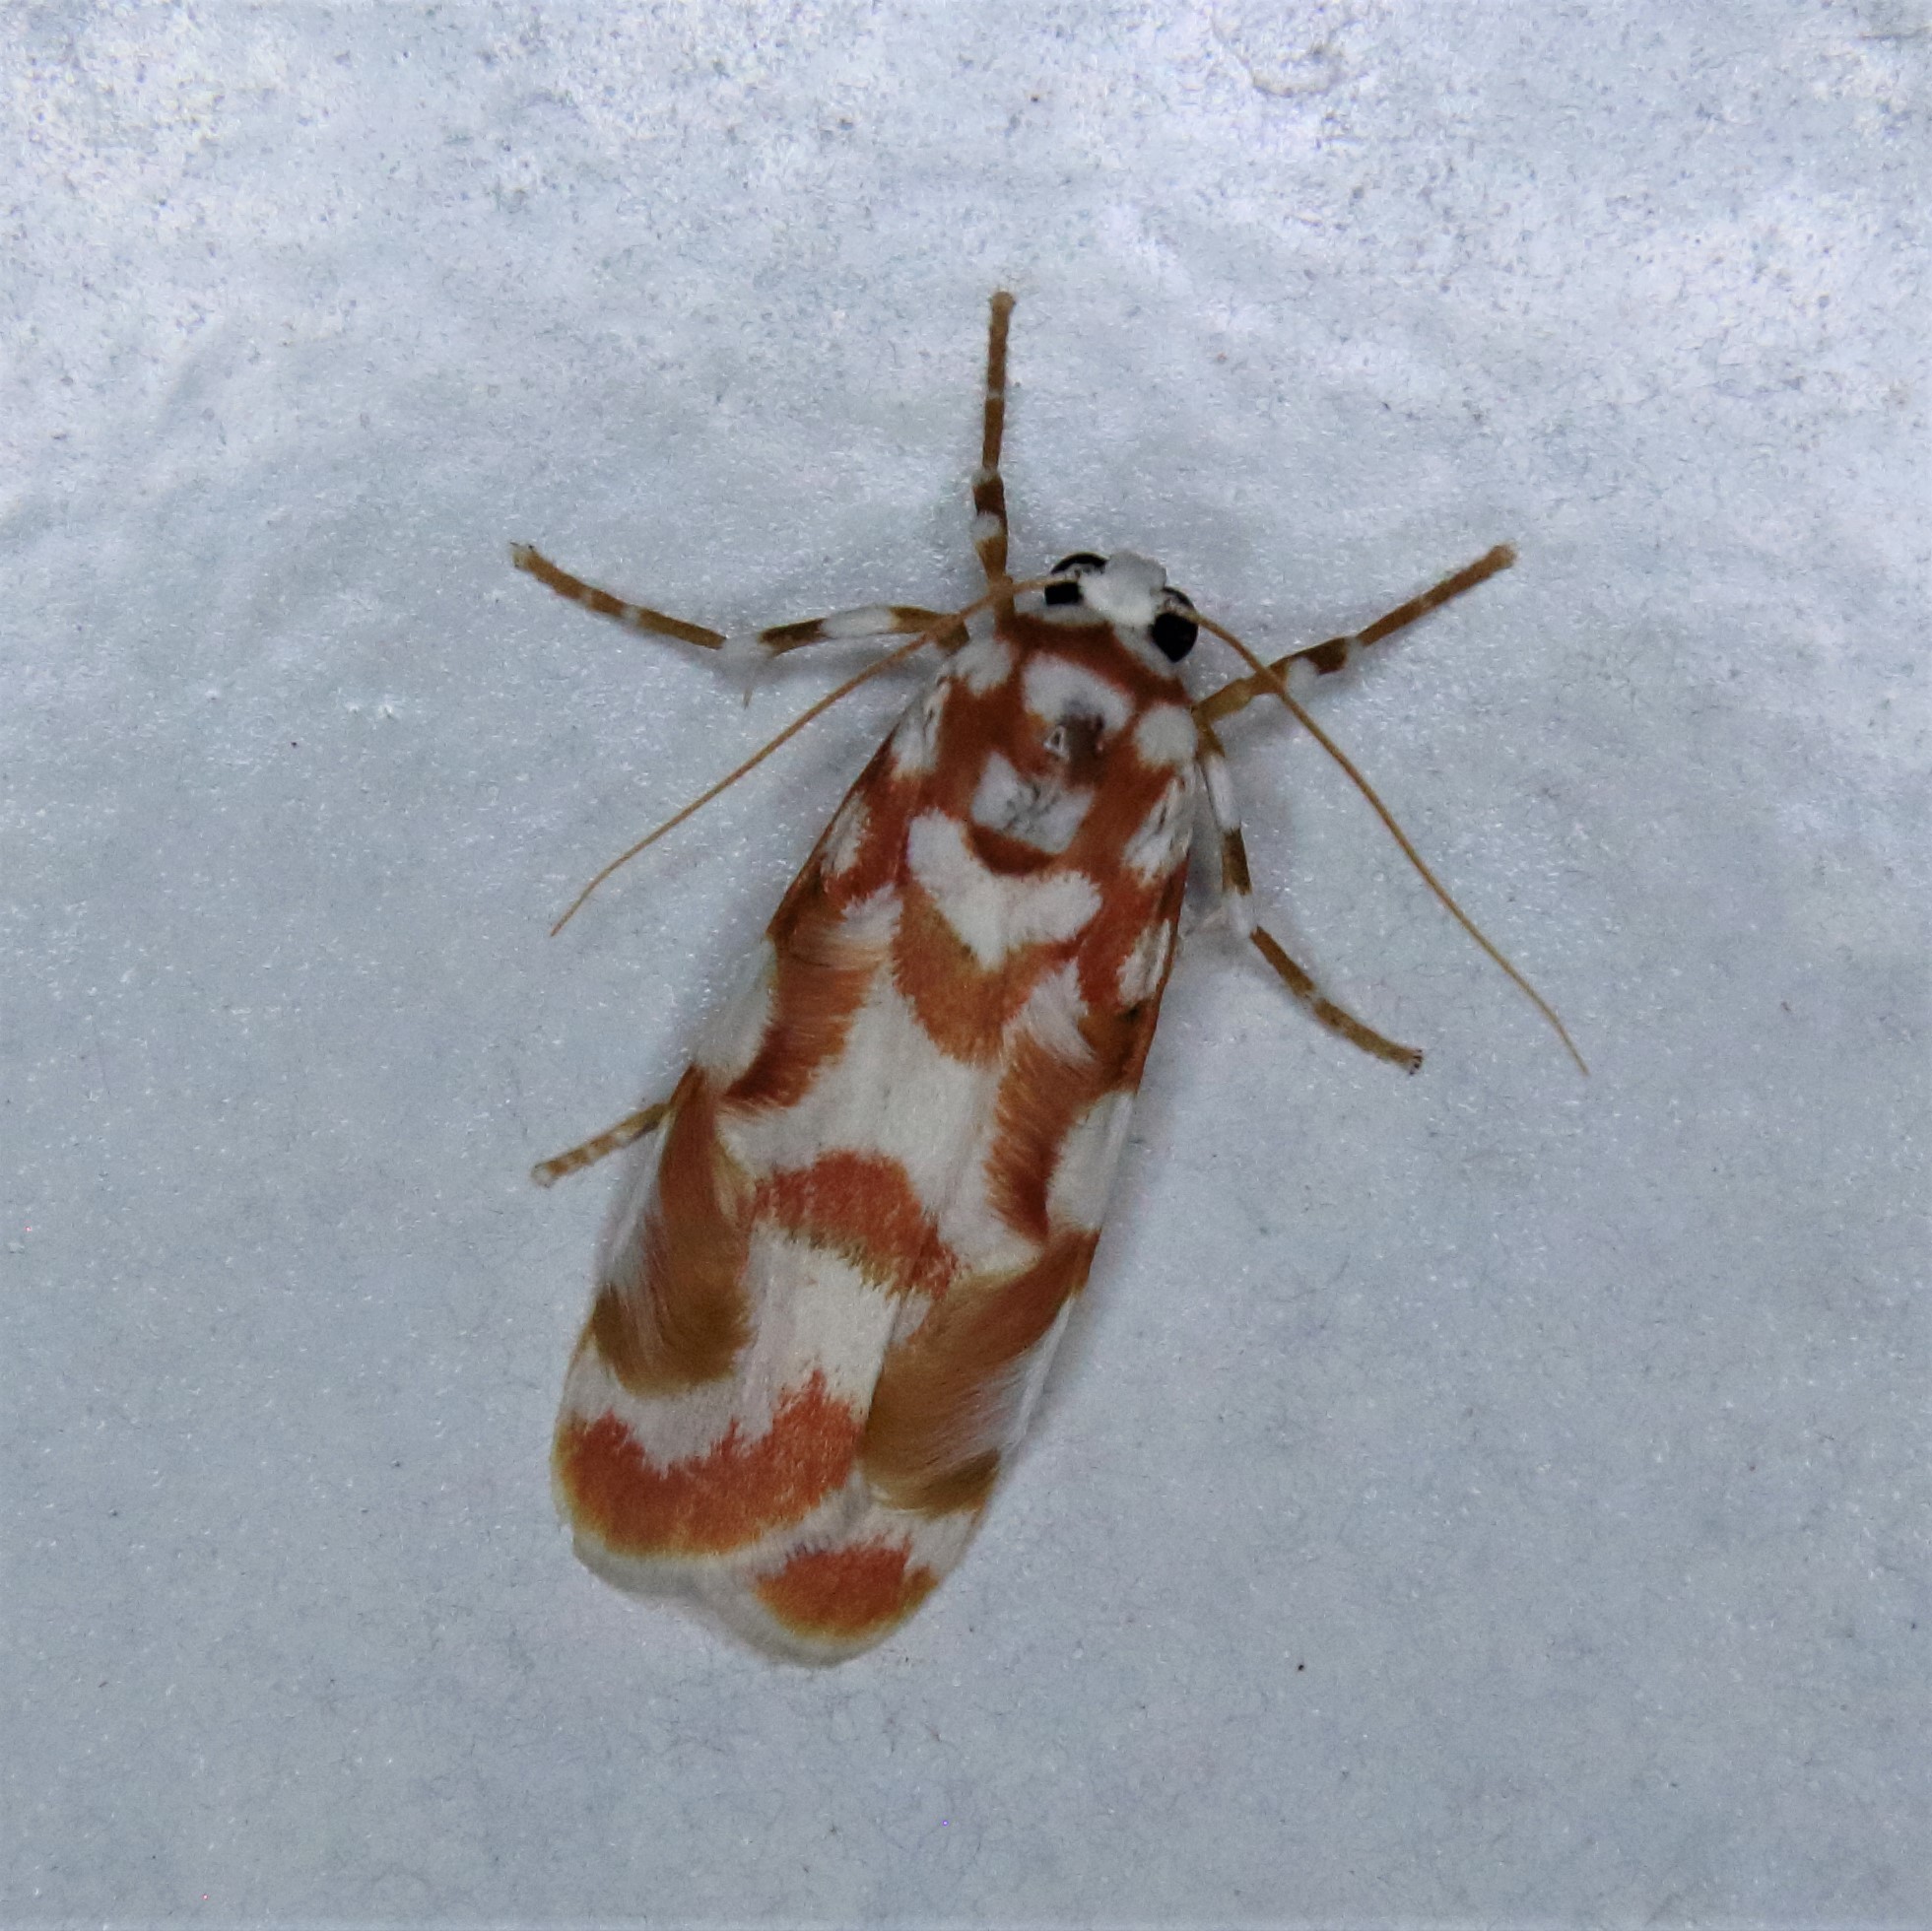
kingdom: Animalia
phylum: Arthropoda
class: Insecta
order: Lepidoptera
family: Erebidae
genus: Cyana
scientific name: Cyana costifimbria
